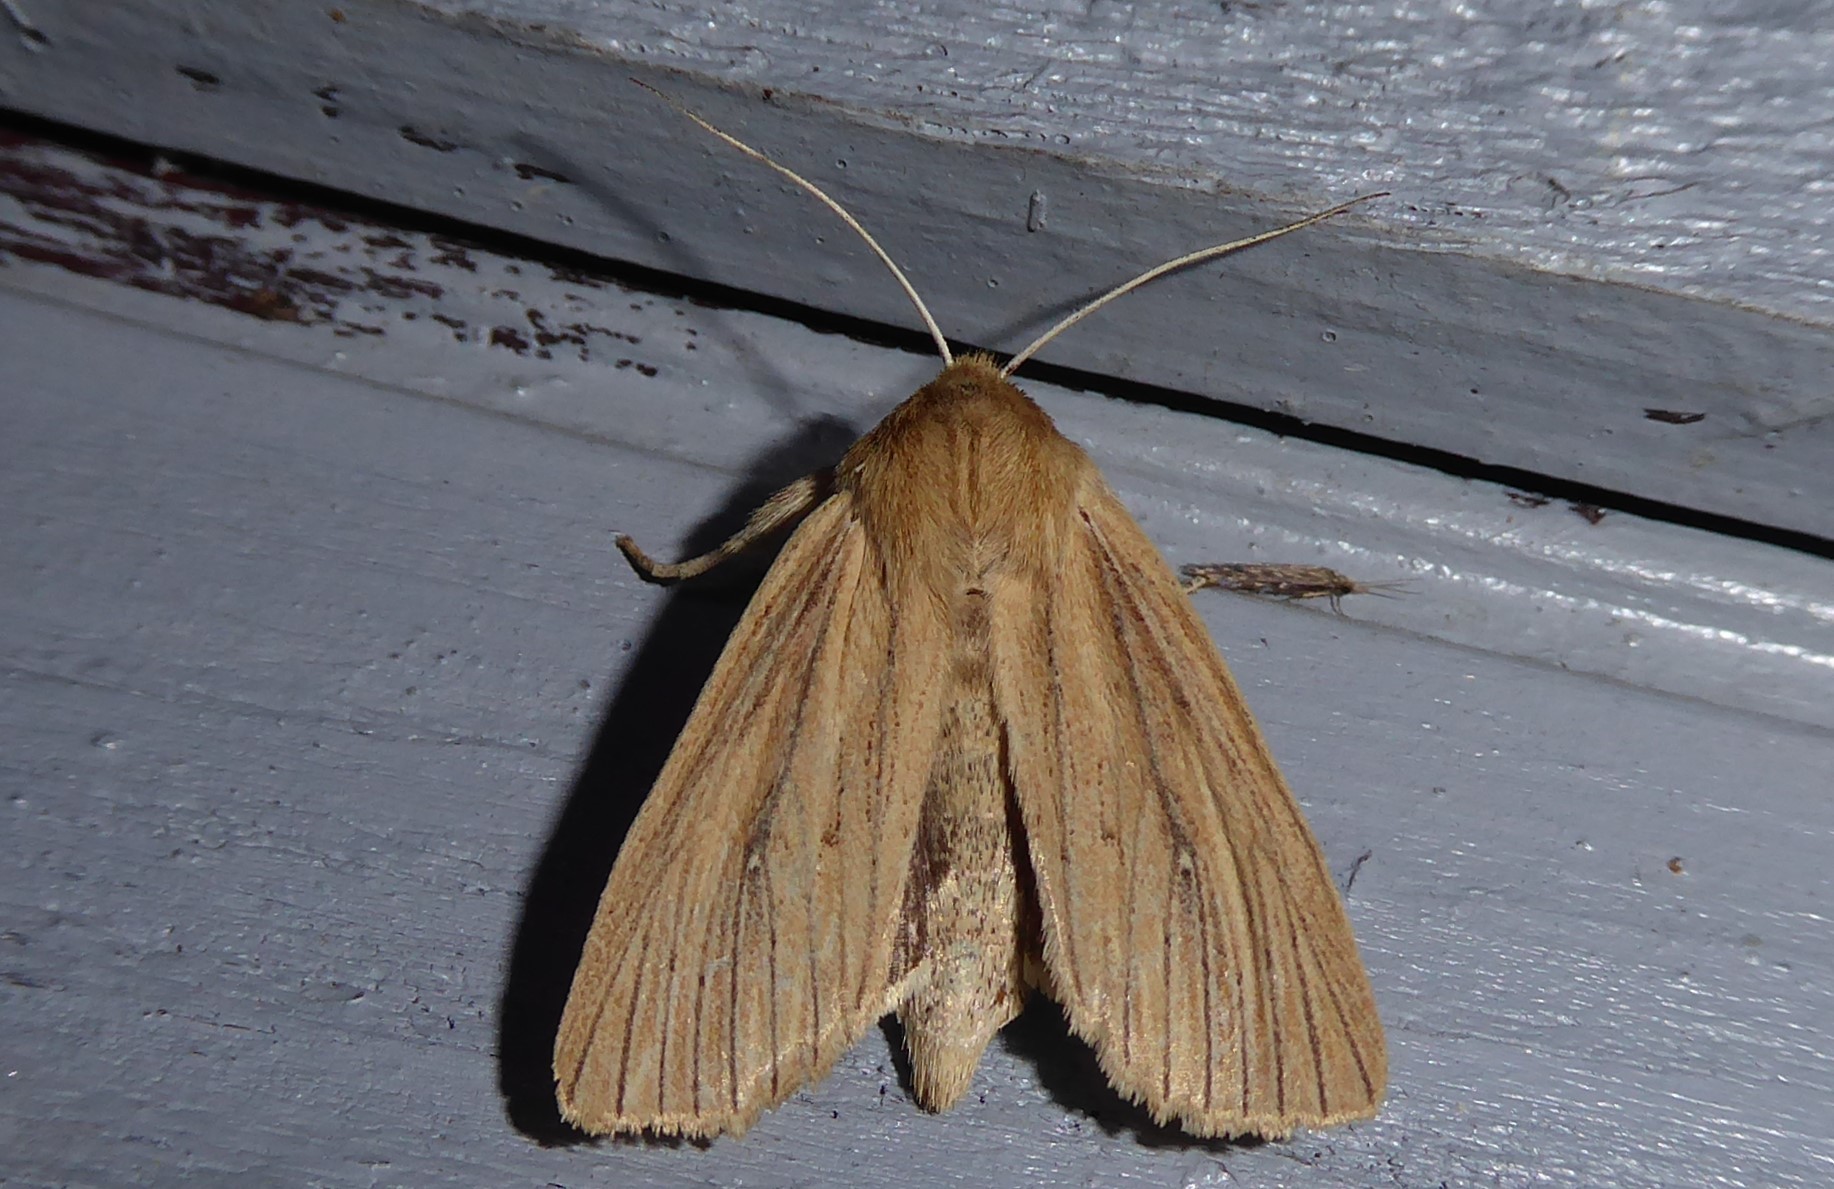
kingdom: Animalia
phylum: Arthropoda
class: Insecta
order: Lepidoptera
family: Noctuidae
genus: Ichneutica
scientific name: Ichneutica arotis
